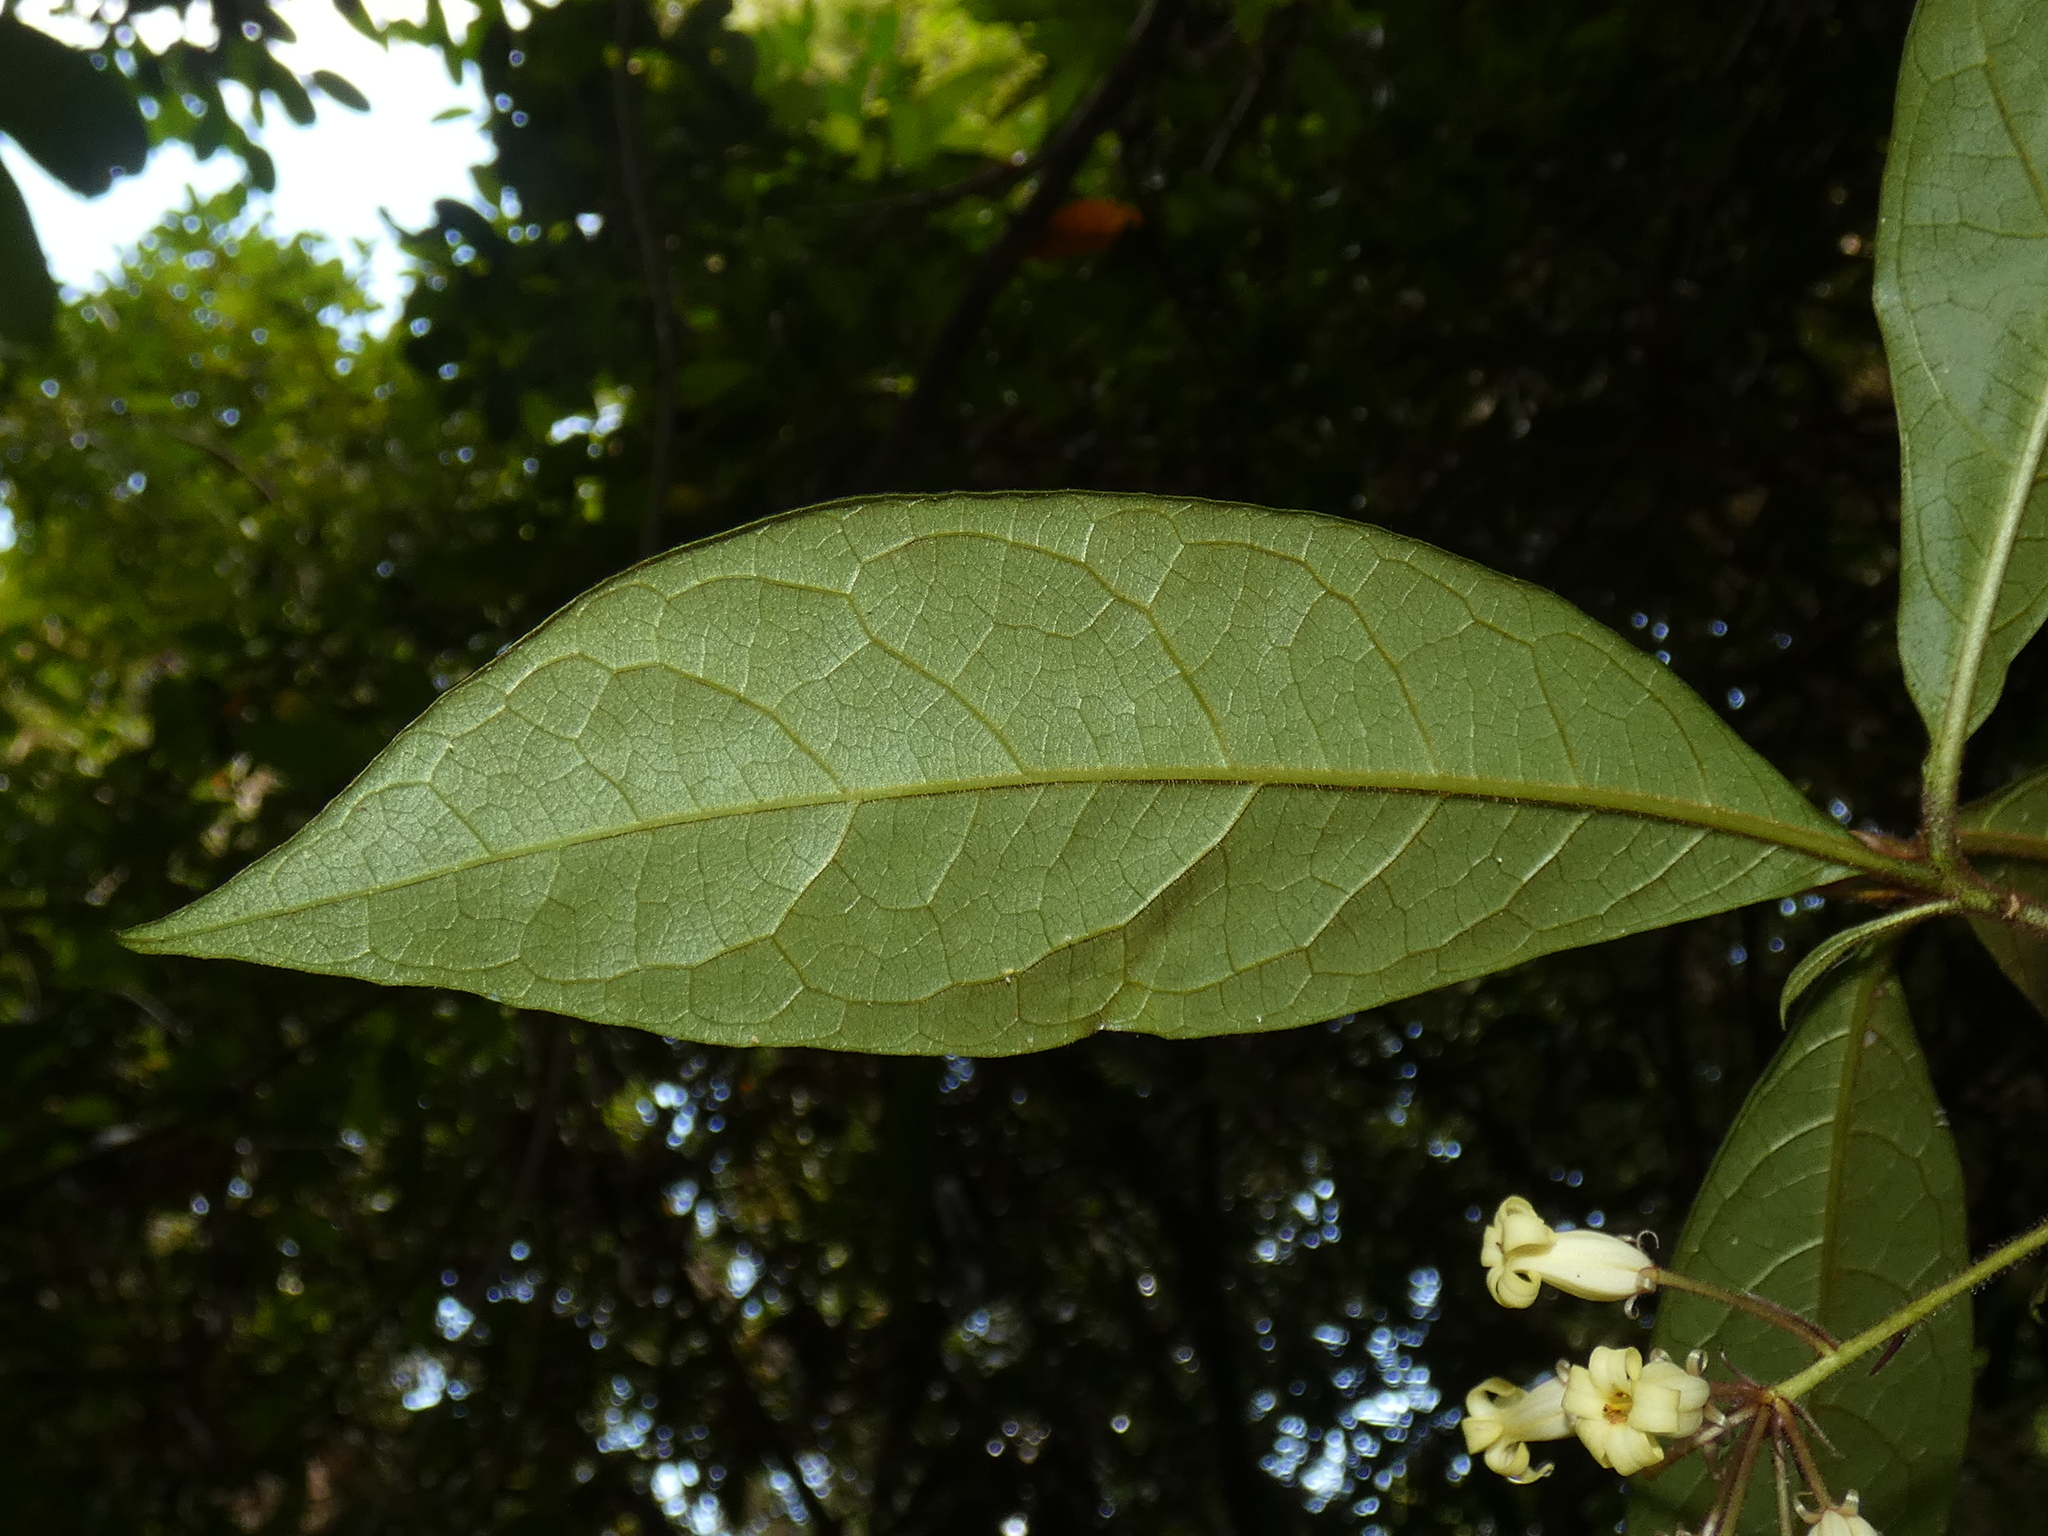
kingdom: Plantae
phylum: Tracheophyta
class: Magnoliopsida
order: Apiales
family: Pittosporaceae
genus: Pittosporum
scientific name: Pittosporum rubiginosum
